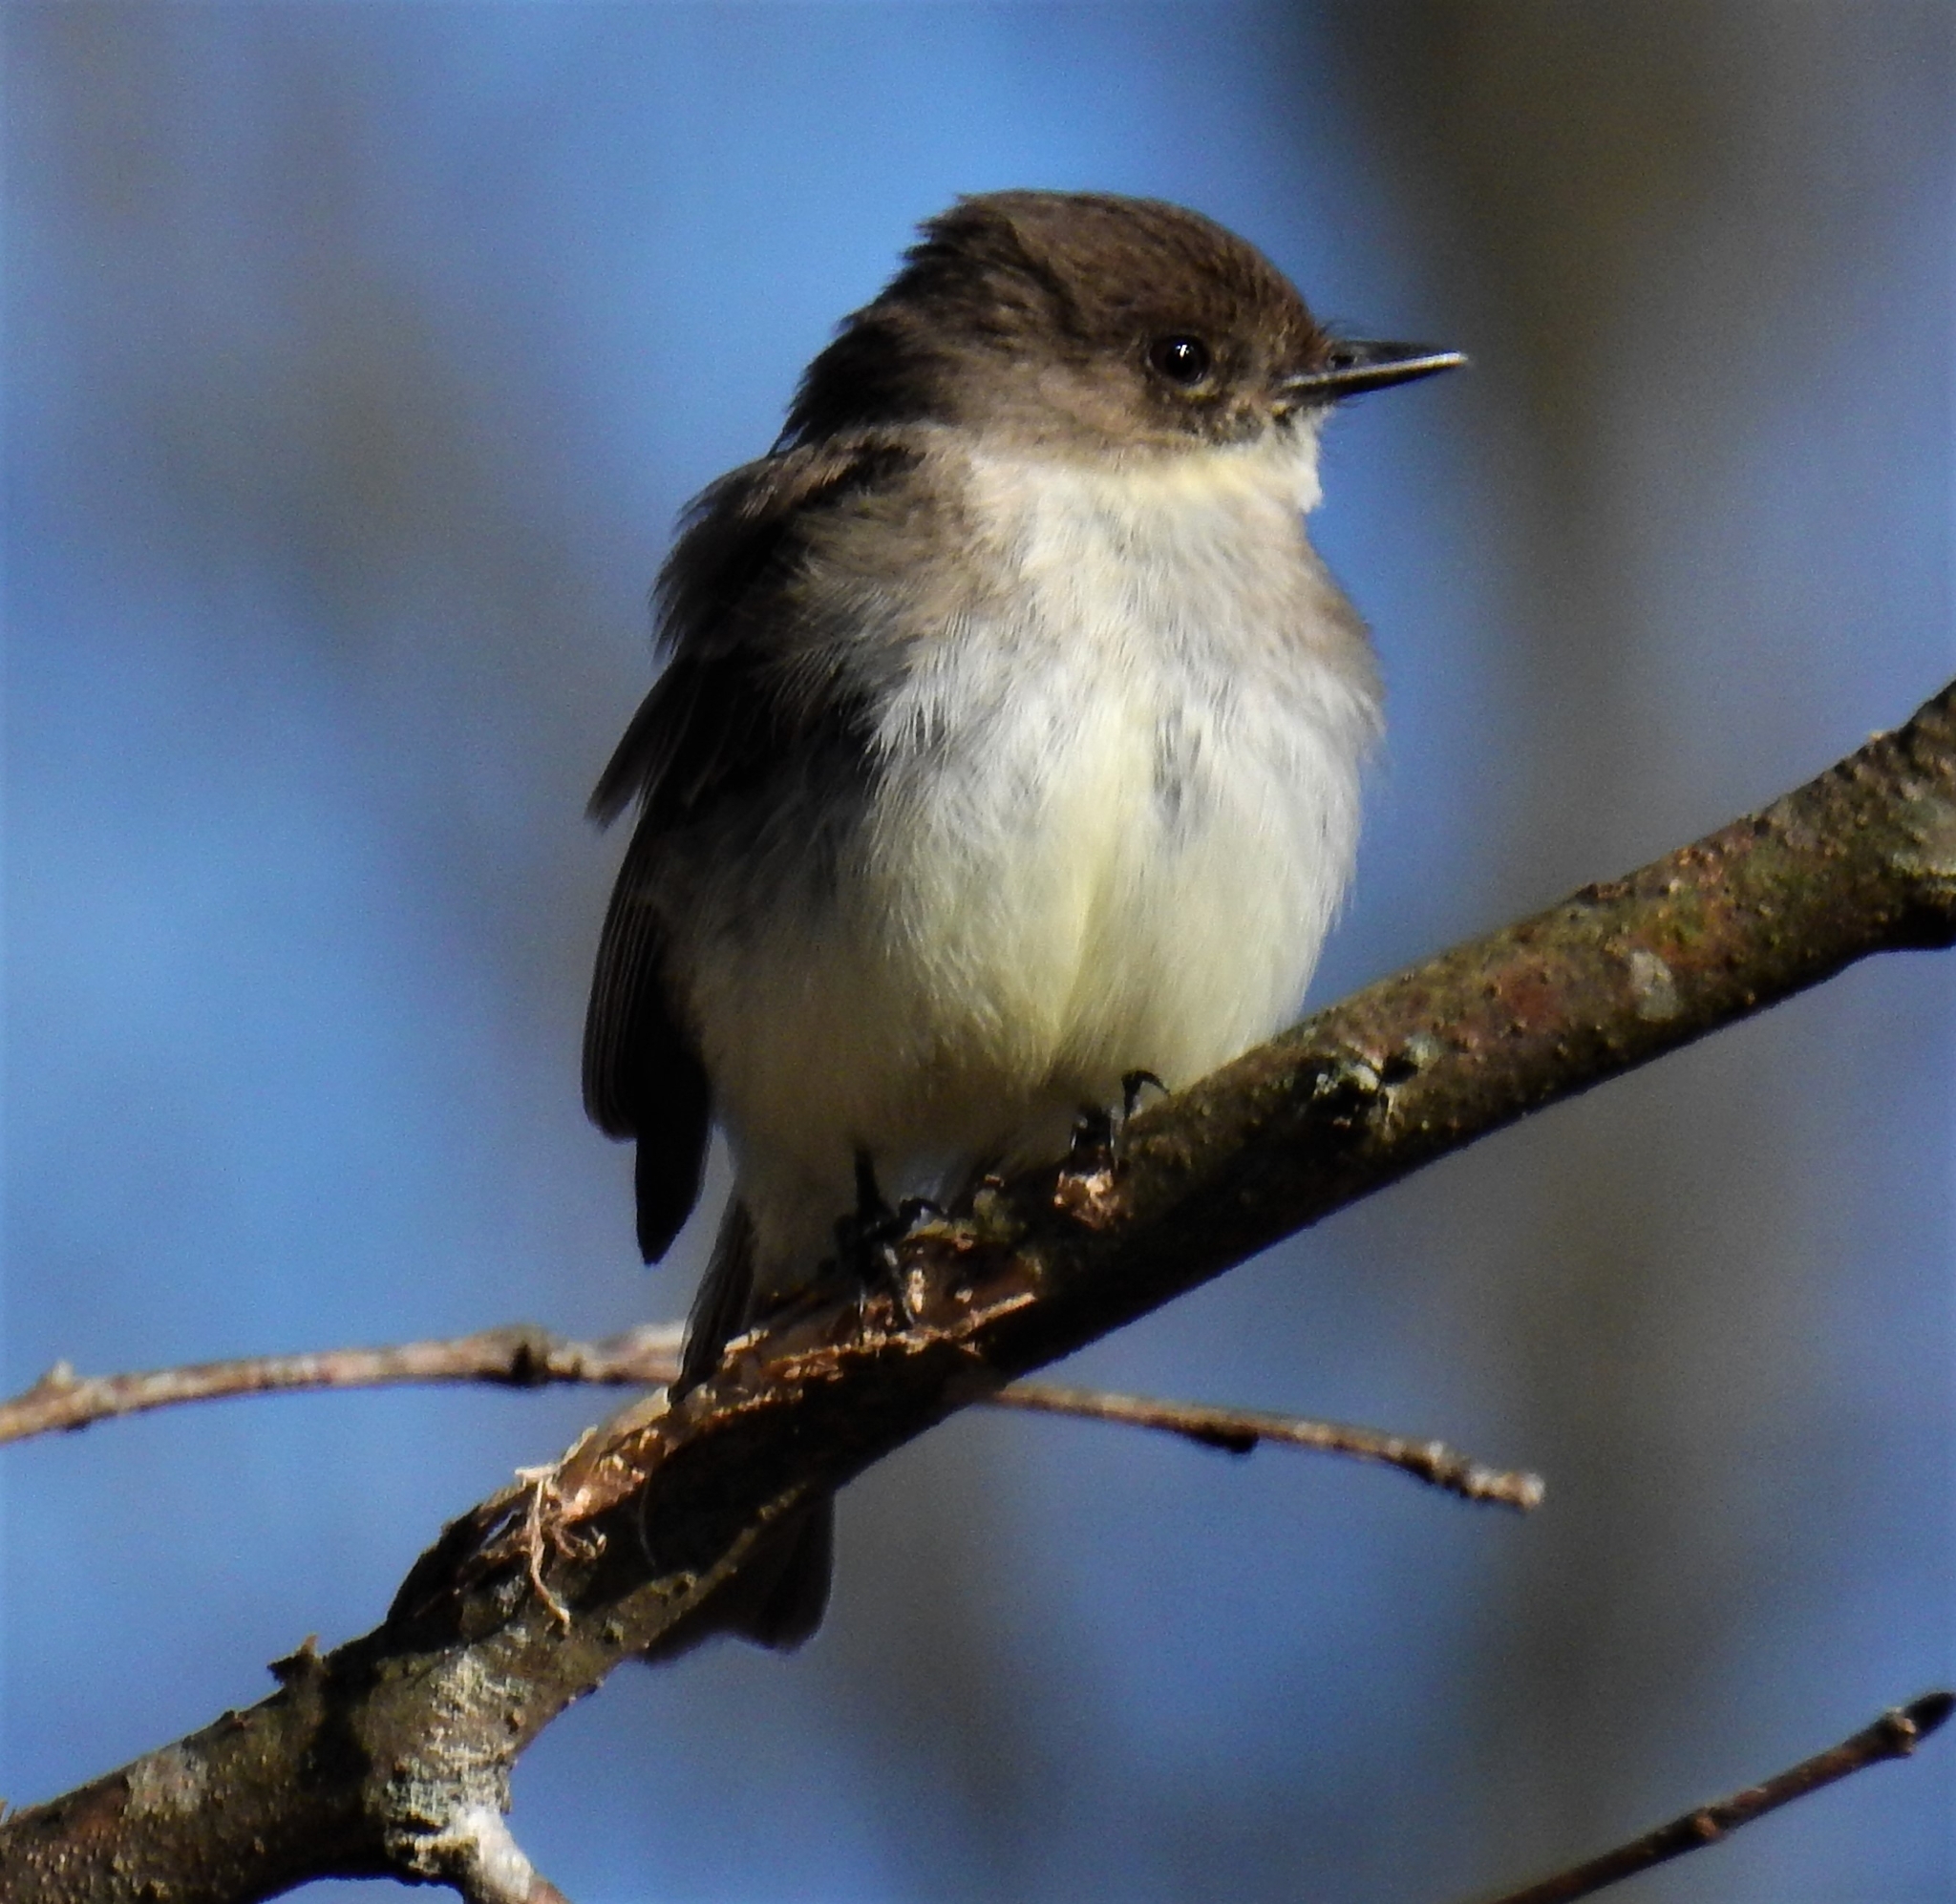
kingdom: Animalia
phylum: Chordata
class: Aves
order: Passeriformes
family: Tyrannidae
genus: Sayornis
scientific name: Sayornis phoebe
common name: Eastern phoebe
